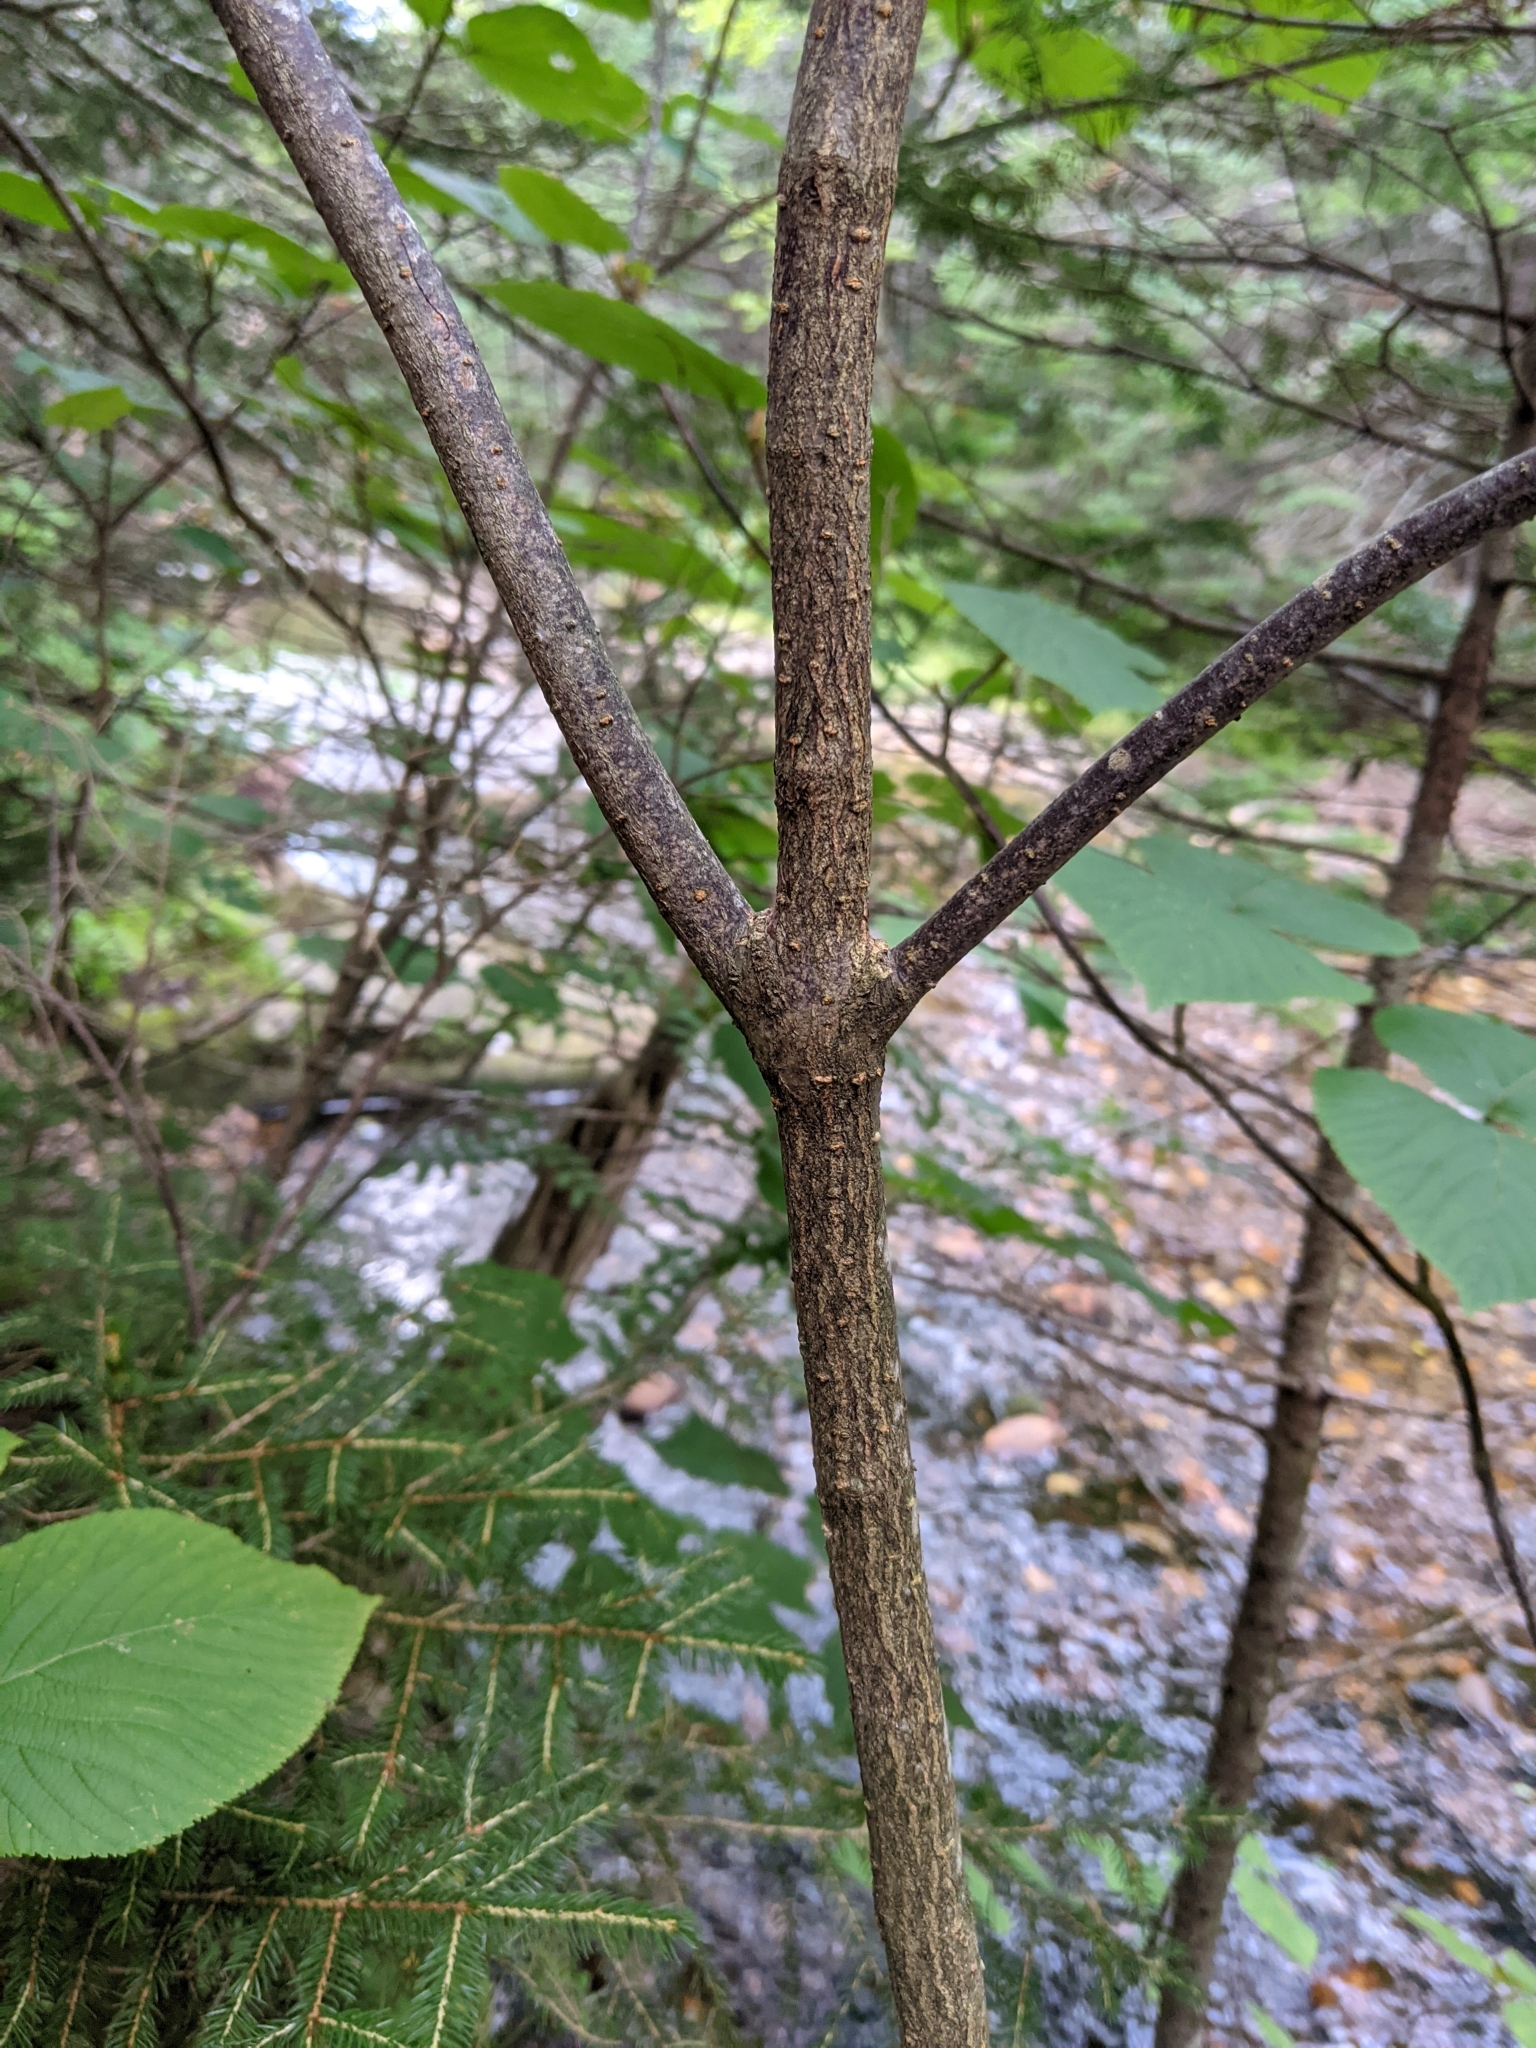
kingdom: Plantae
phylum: Tracheophyta
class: Magnoliopsida
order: Dipsacales
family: Viburnaceae
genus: Viburnum
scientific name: Viburnum lantanoides
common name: Hobblebush
